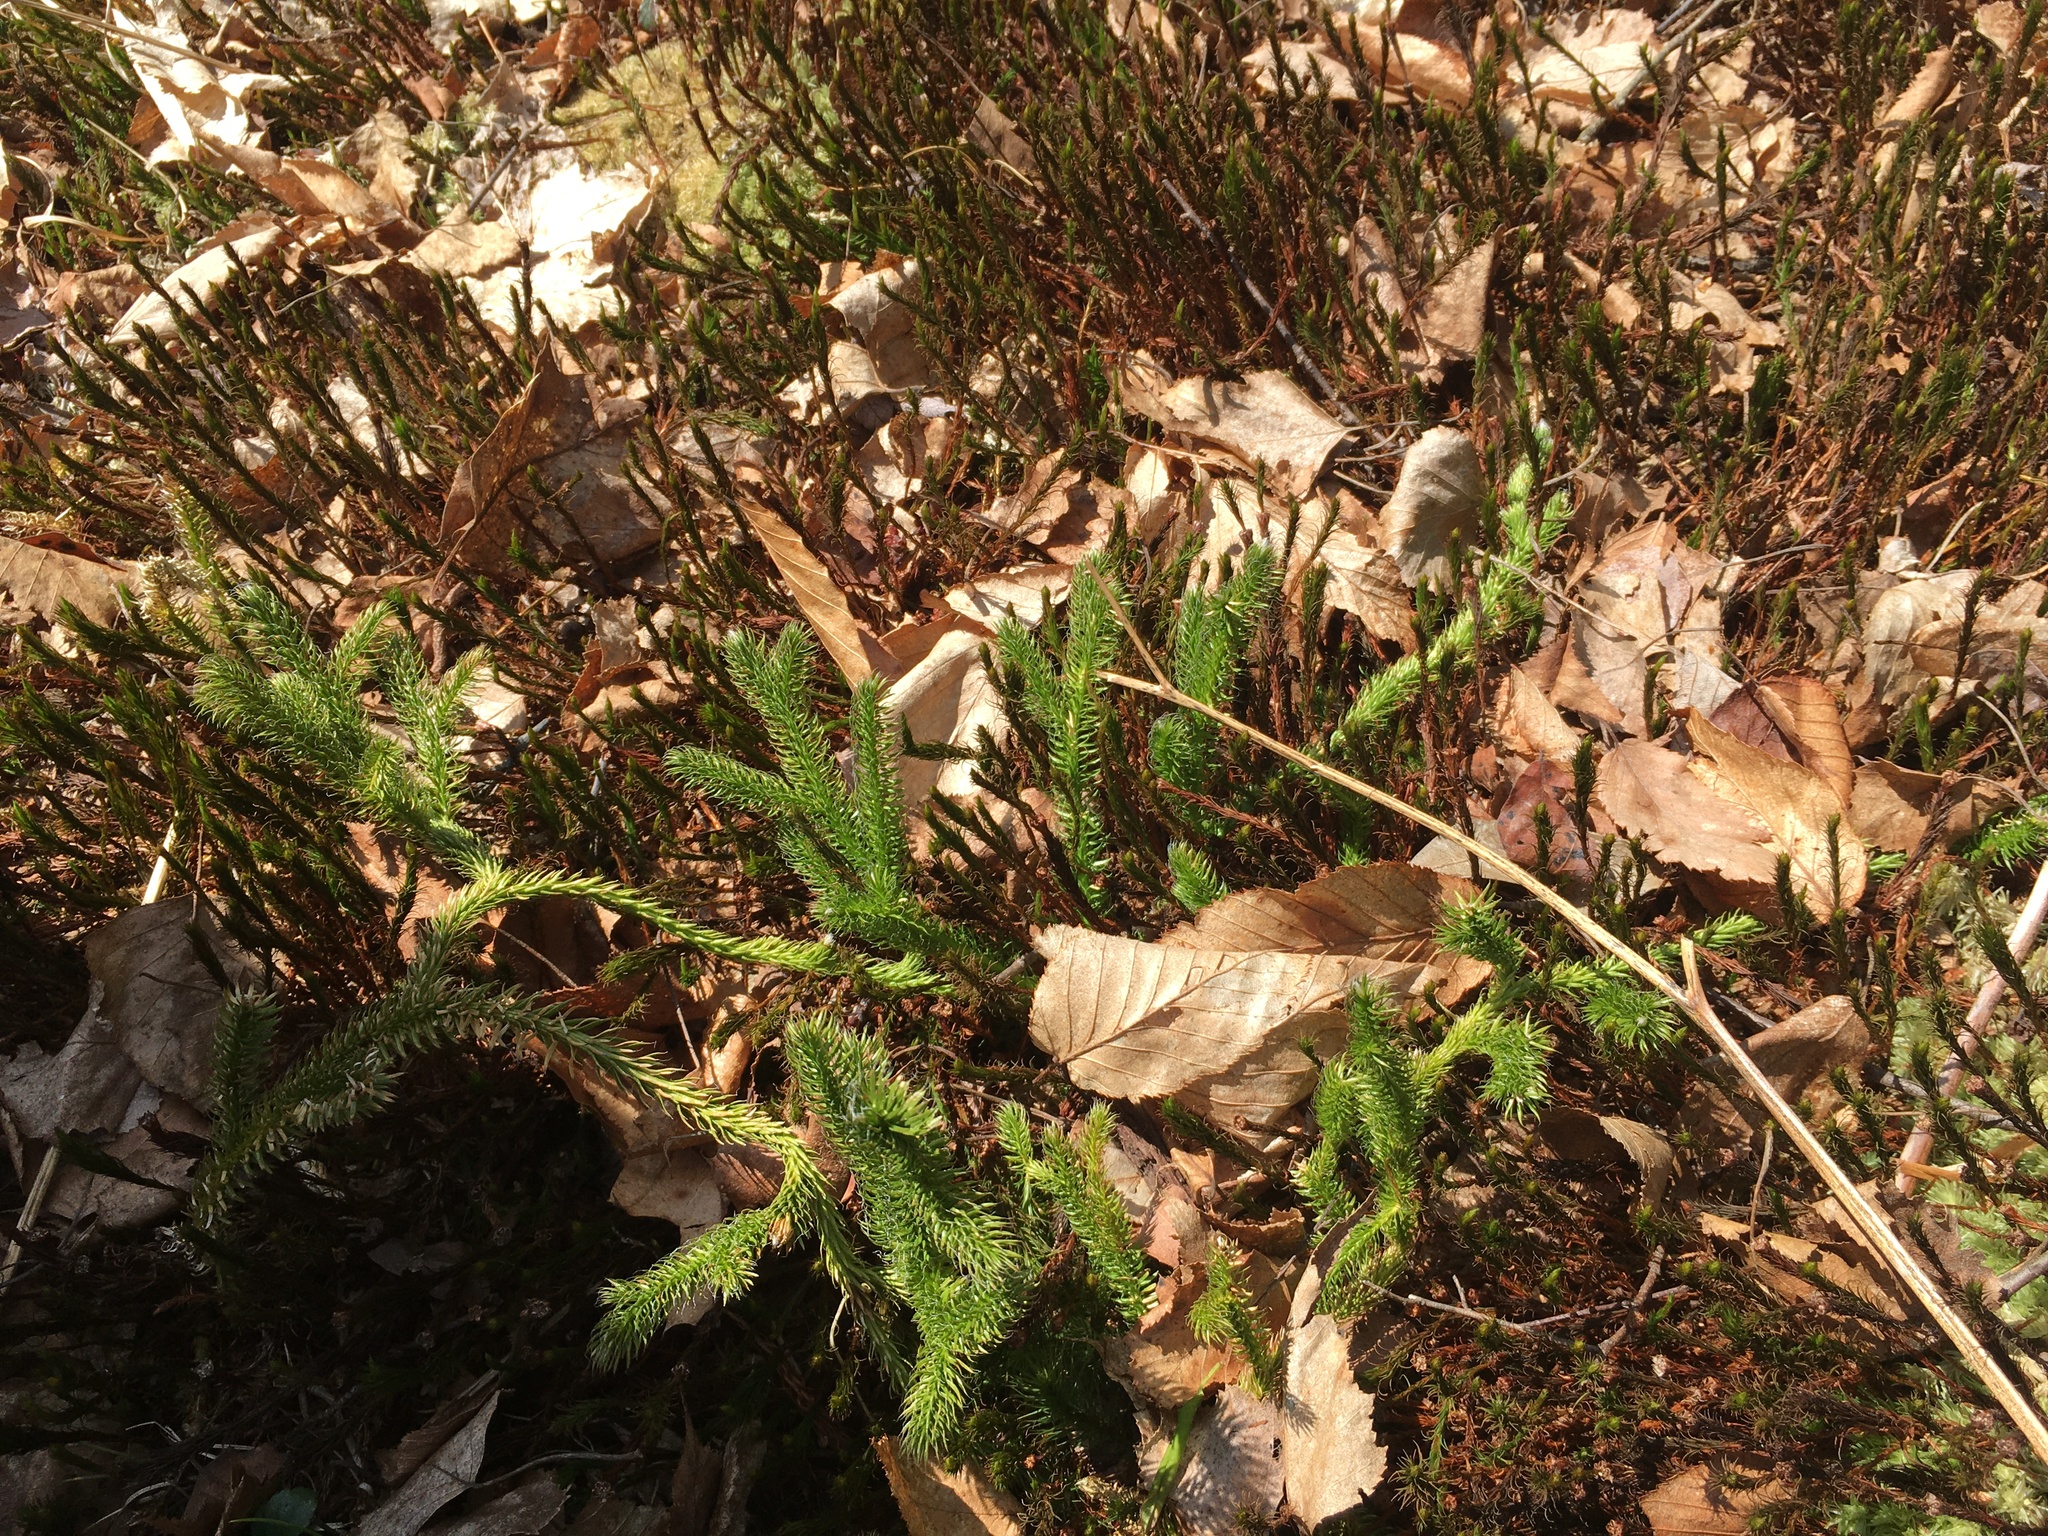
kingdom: Plantae
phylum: Tracheophyta
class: Lycopodiopsida
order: Lycopodiales
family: Lycopodiaceae
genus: Lycopodium
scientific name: Lycopodium clavatum
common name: Stag's-horn clubmoss
